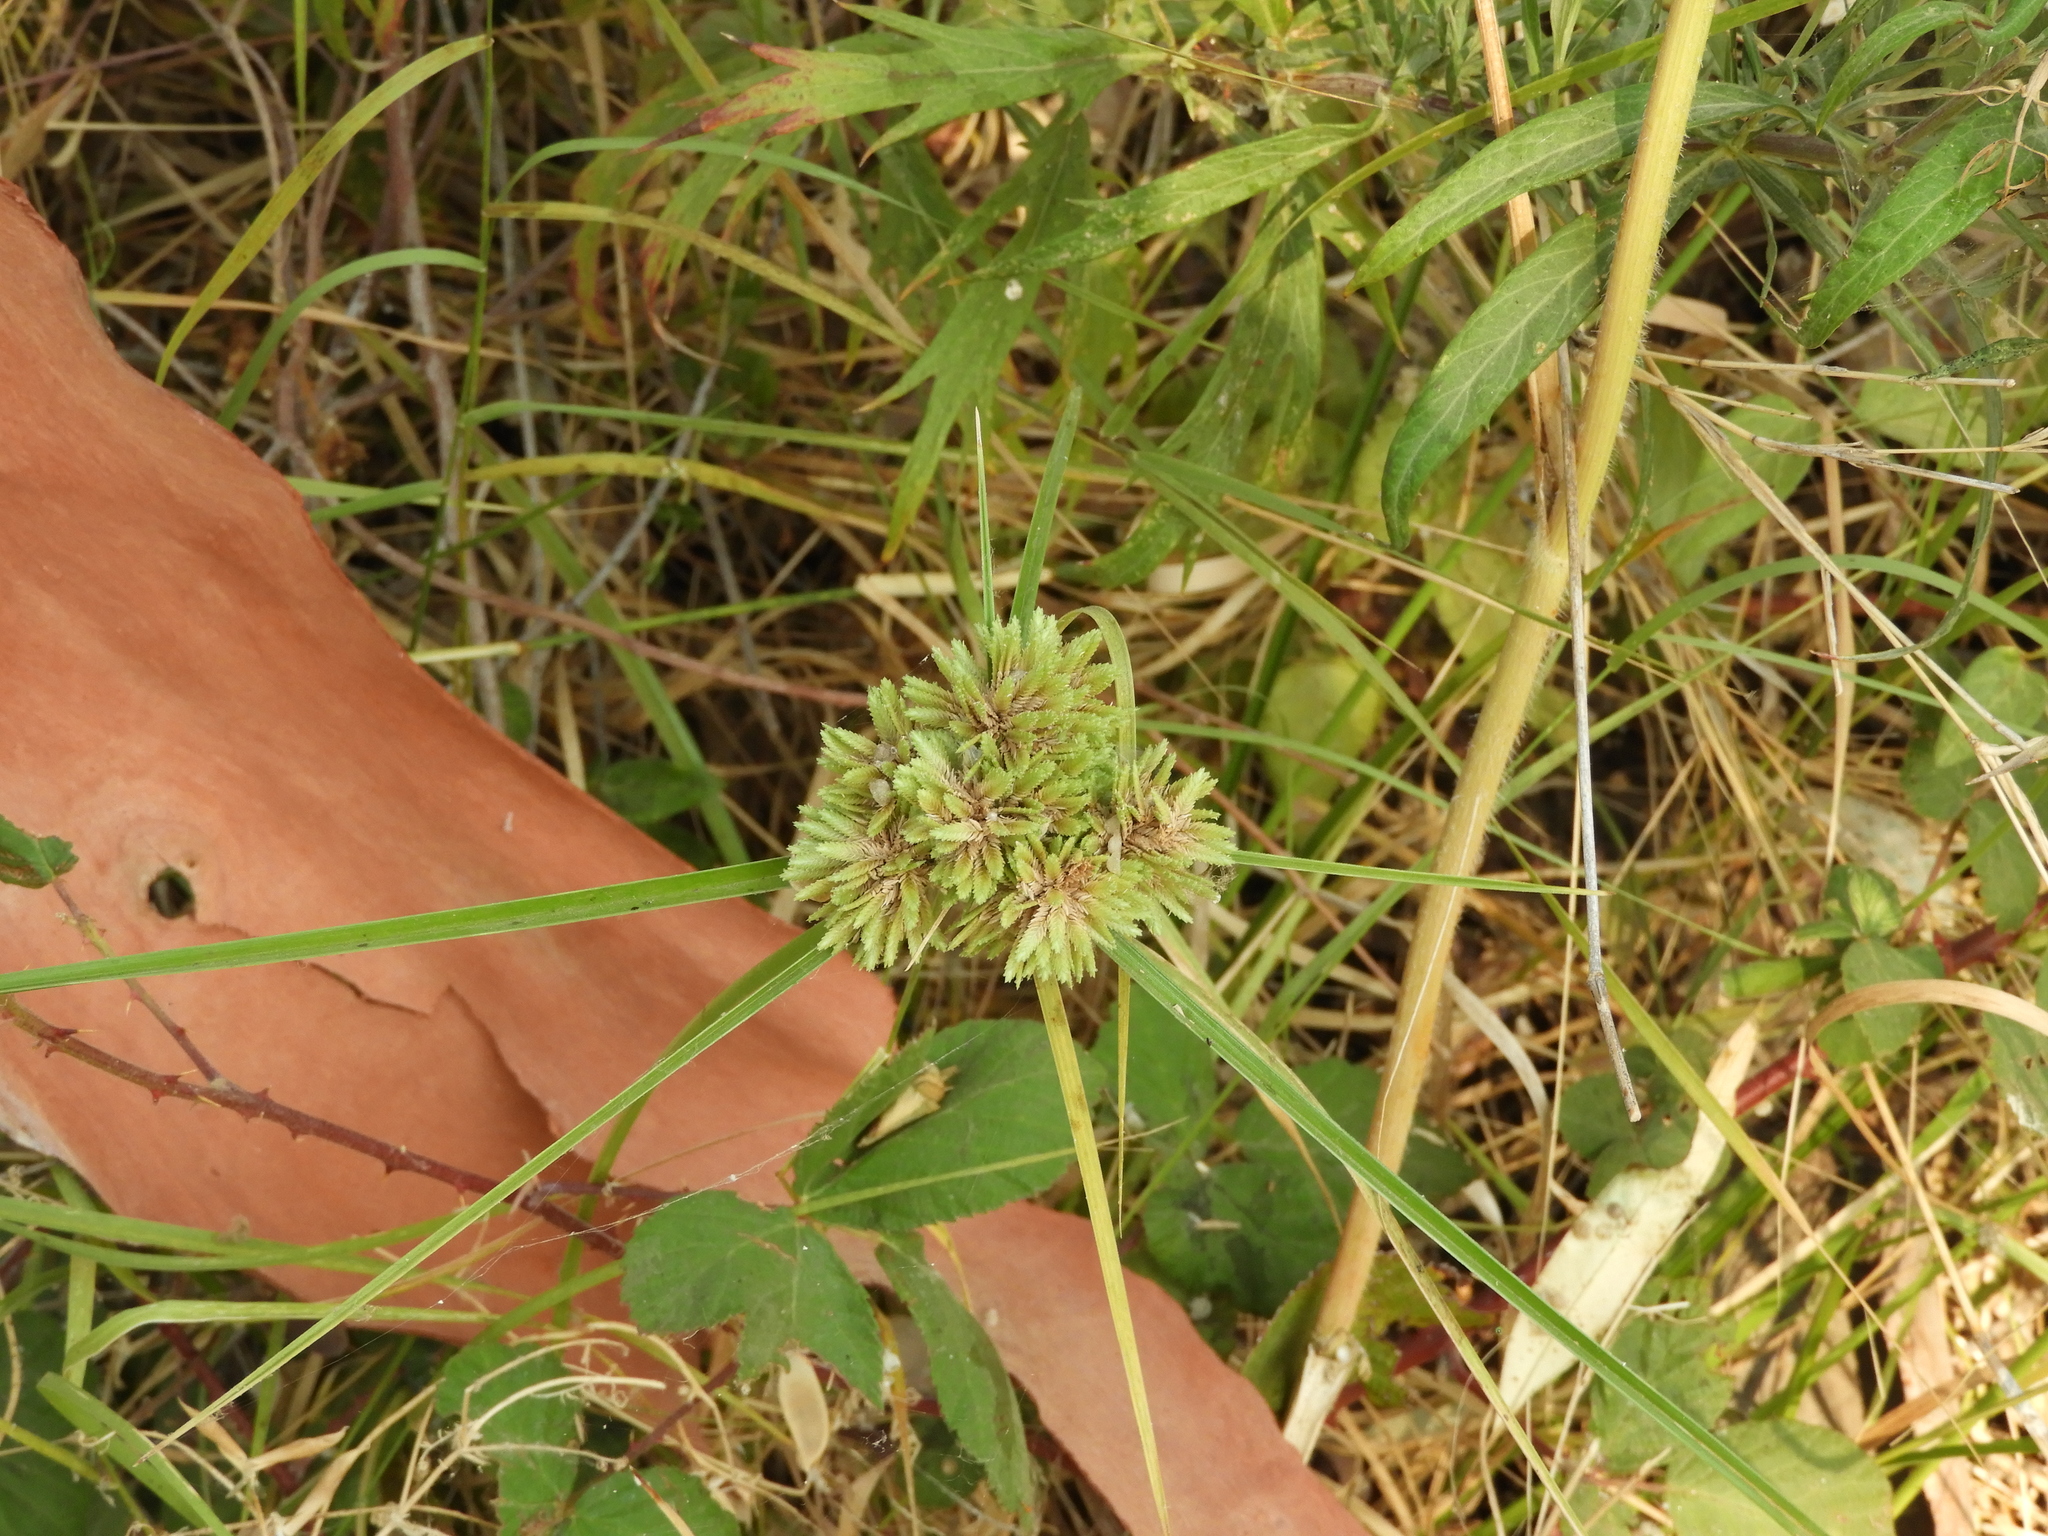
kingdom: Plantae
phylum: Tracheophyta
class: Liliopsida
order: Poales
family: Cyperaceae
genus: Cyperus
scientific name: Cyperus eragrostis
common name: Tall flatsedge
